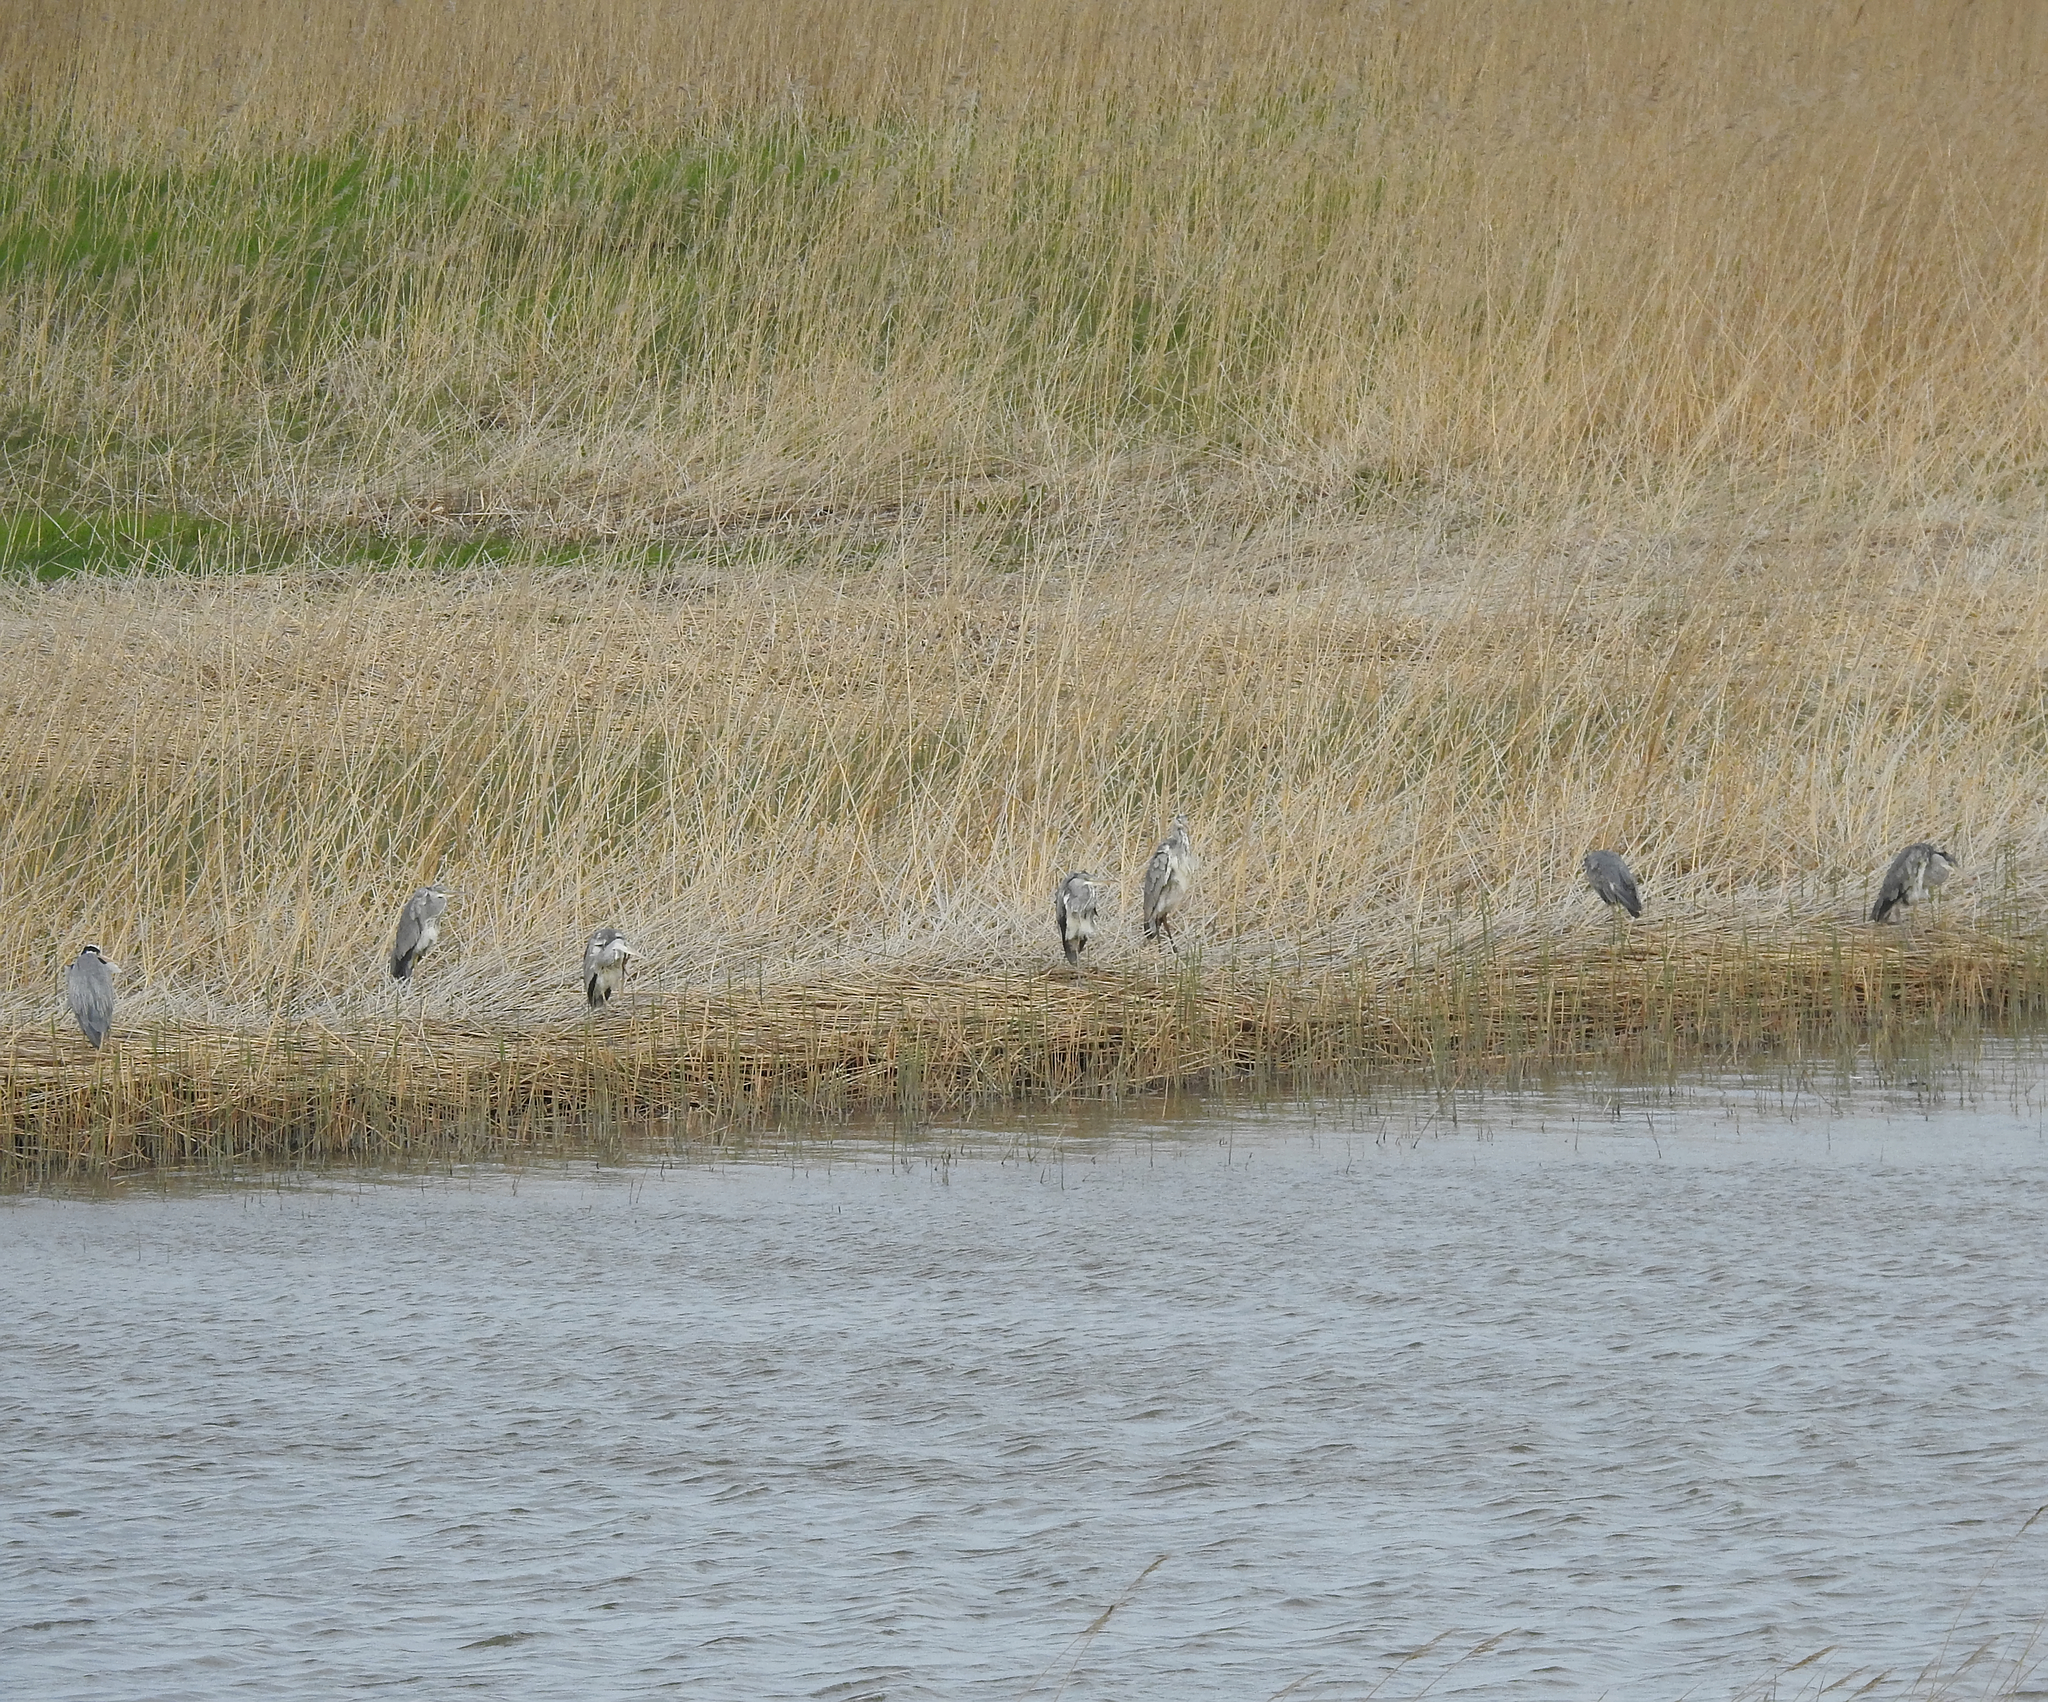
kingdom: Animalia
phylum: Chordata
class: Aves
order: Pelecaniformes
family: Ardeidae
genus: Ardea
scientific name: Ardea cinerea
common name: Grey heron
